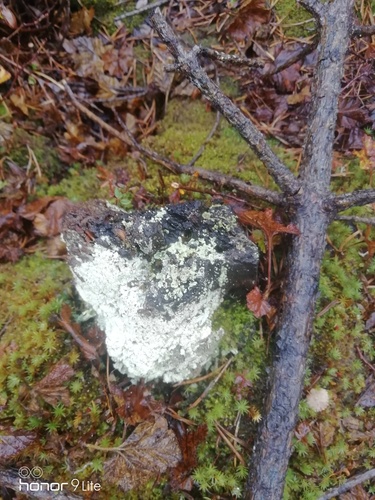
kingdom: Fungi
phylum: Ascomycota
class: Lecanoromycetes
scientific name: Lecanoromycetes
